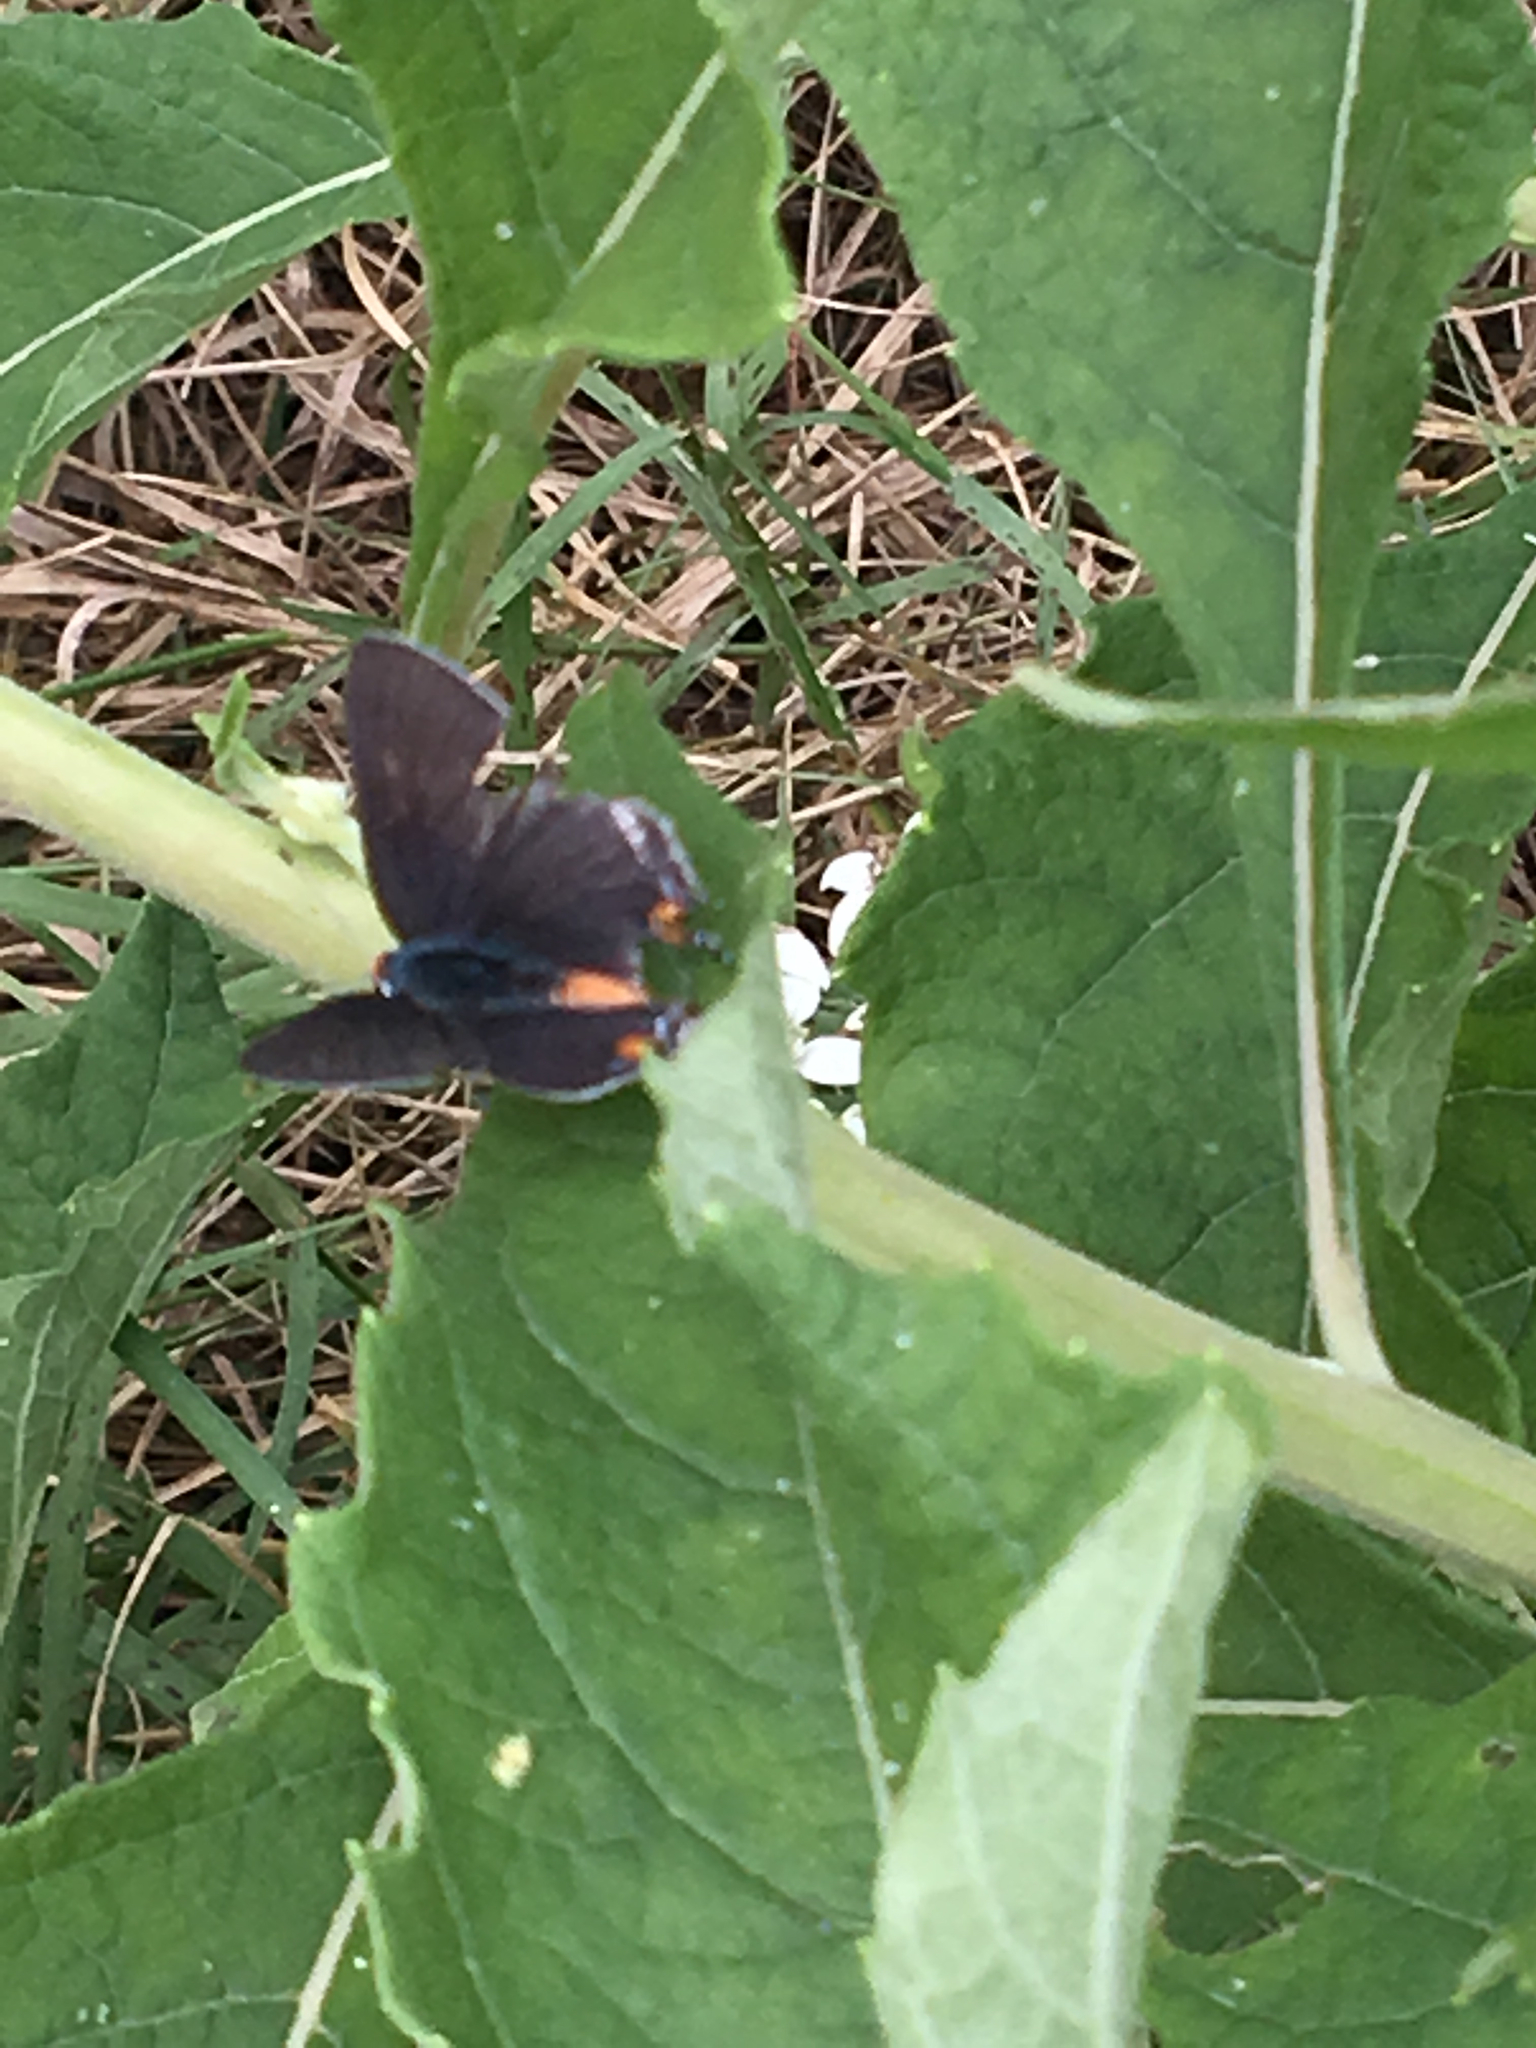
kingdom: Animalia
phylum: Arthropoda
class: Insecta
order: Lepidoptera
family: Lycaenidae
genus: Strymon
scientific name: Strymon melinus
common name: Gray hairstreak
